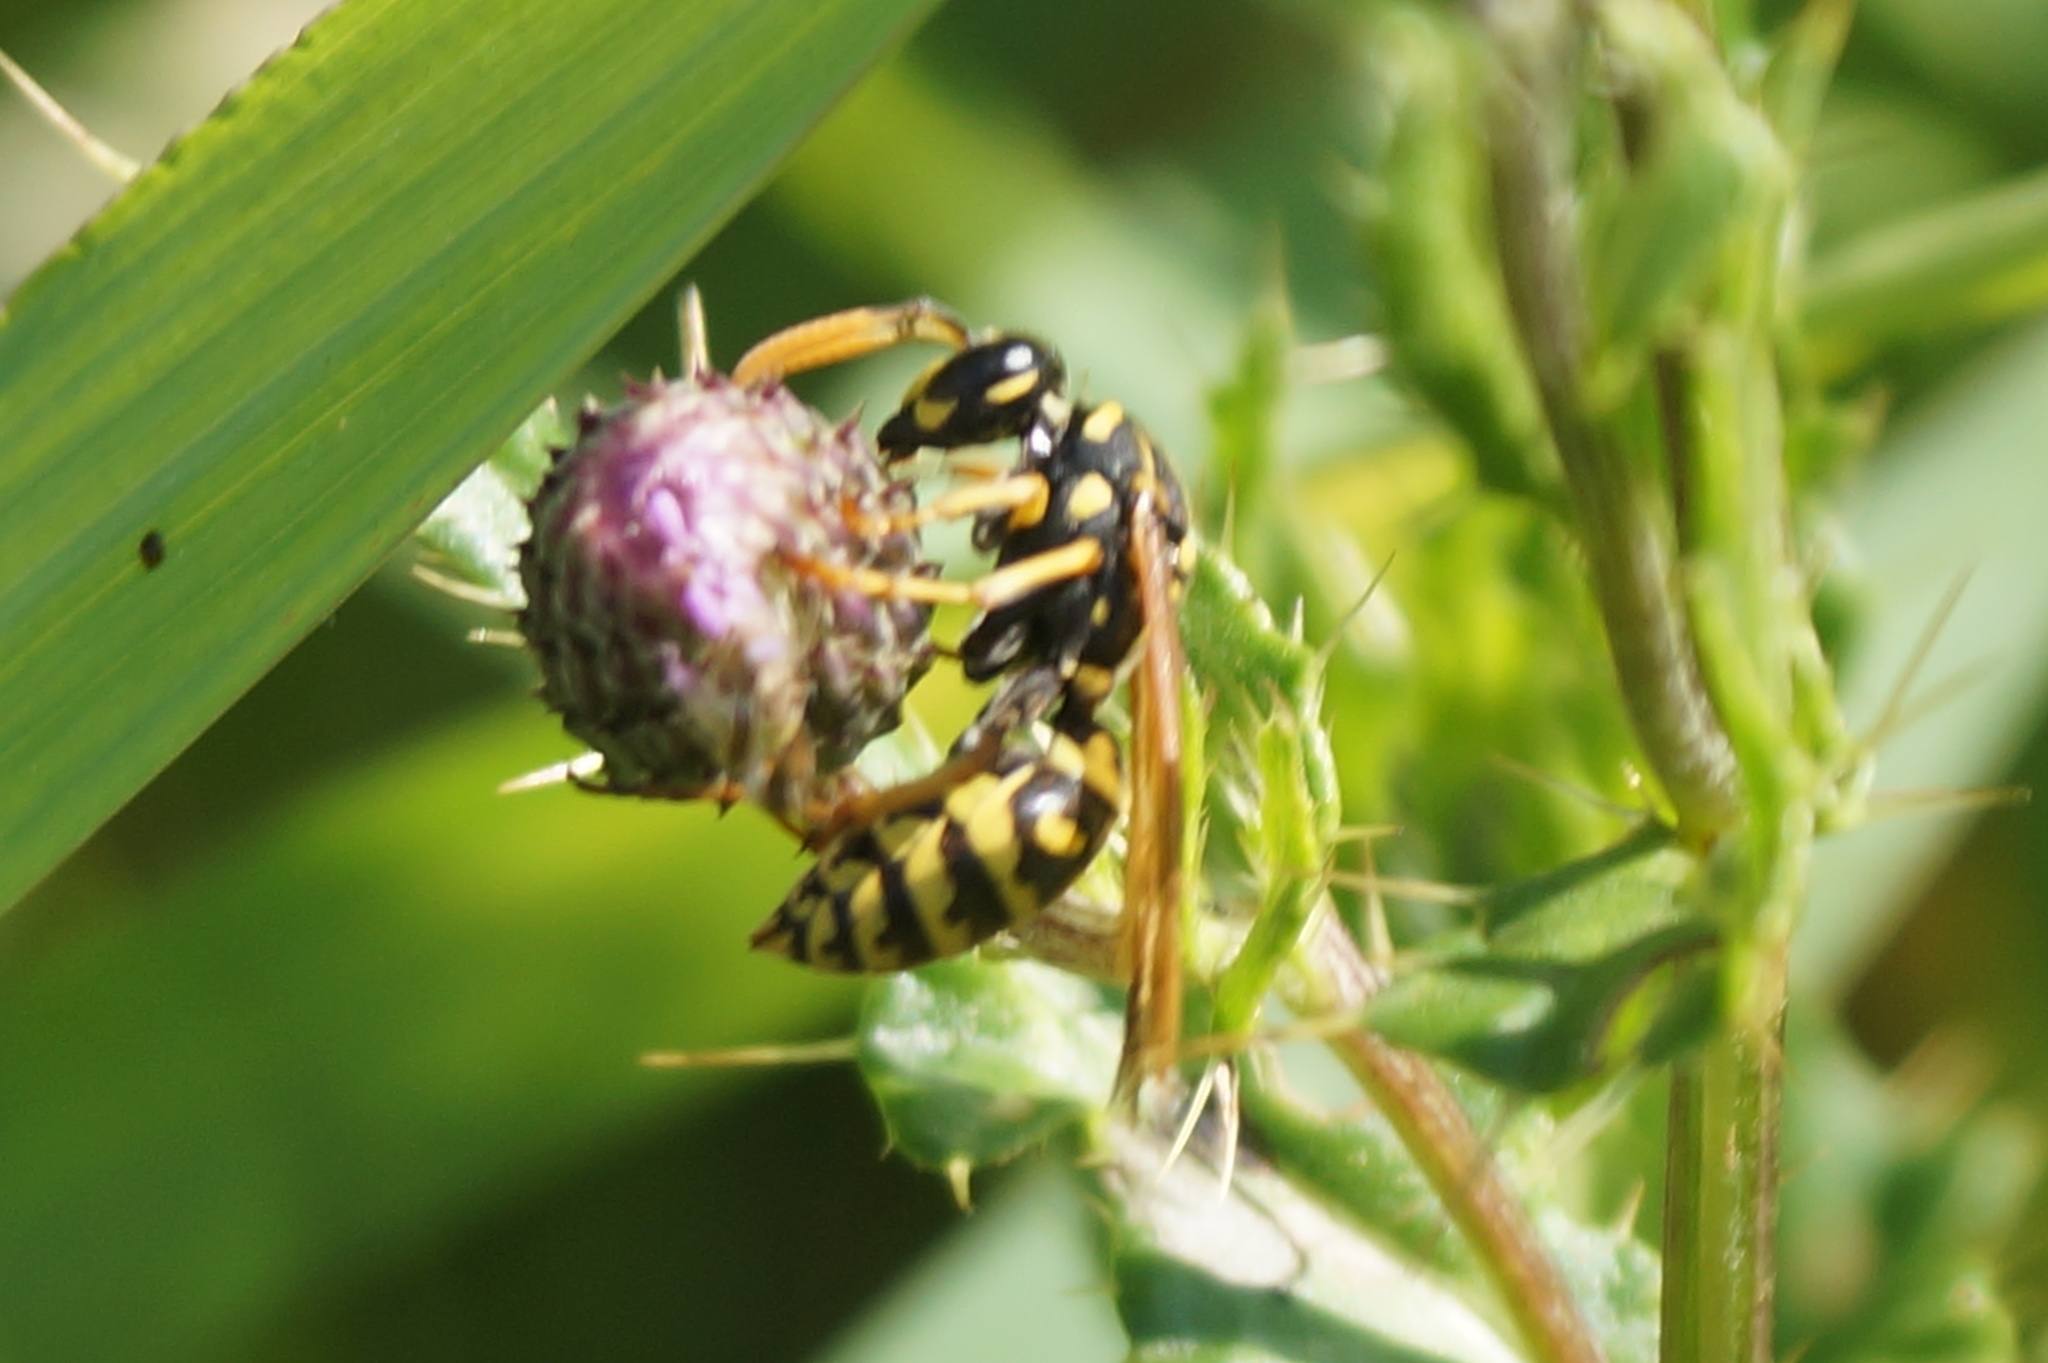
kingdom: Animalia
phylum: Arthropoda
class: Insecta
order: Hymenoptera
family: Eumenidae
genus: Polistes
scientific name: Polistes dominula
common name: Paper wasp
